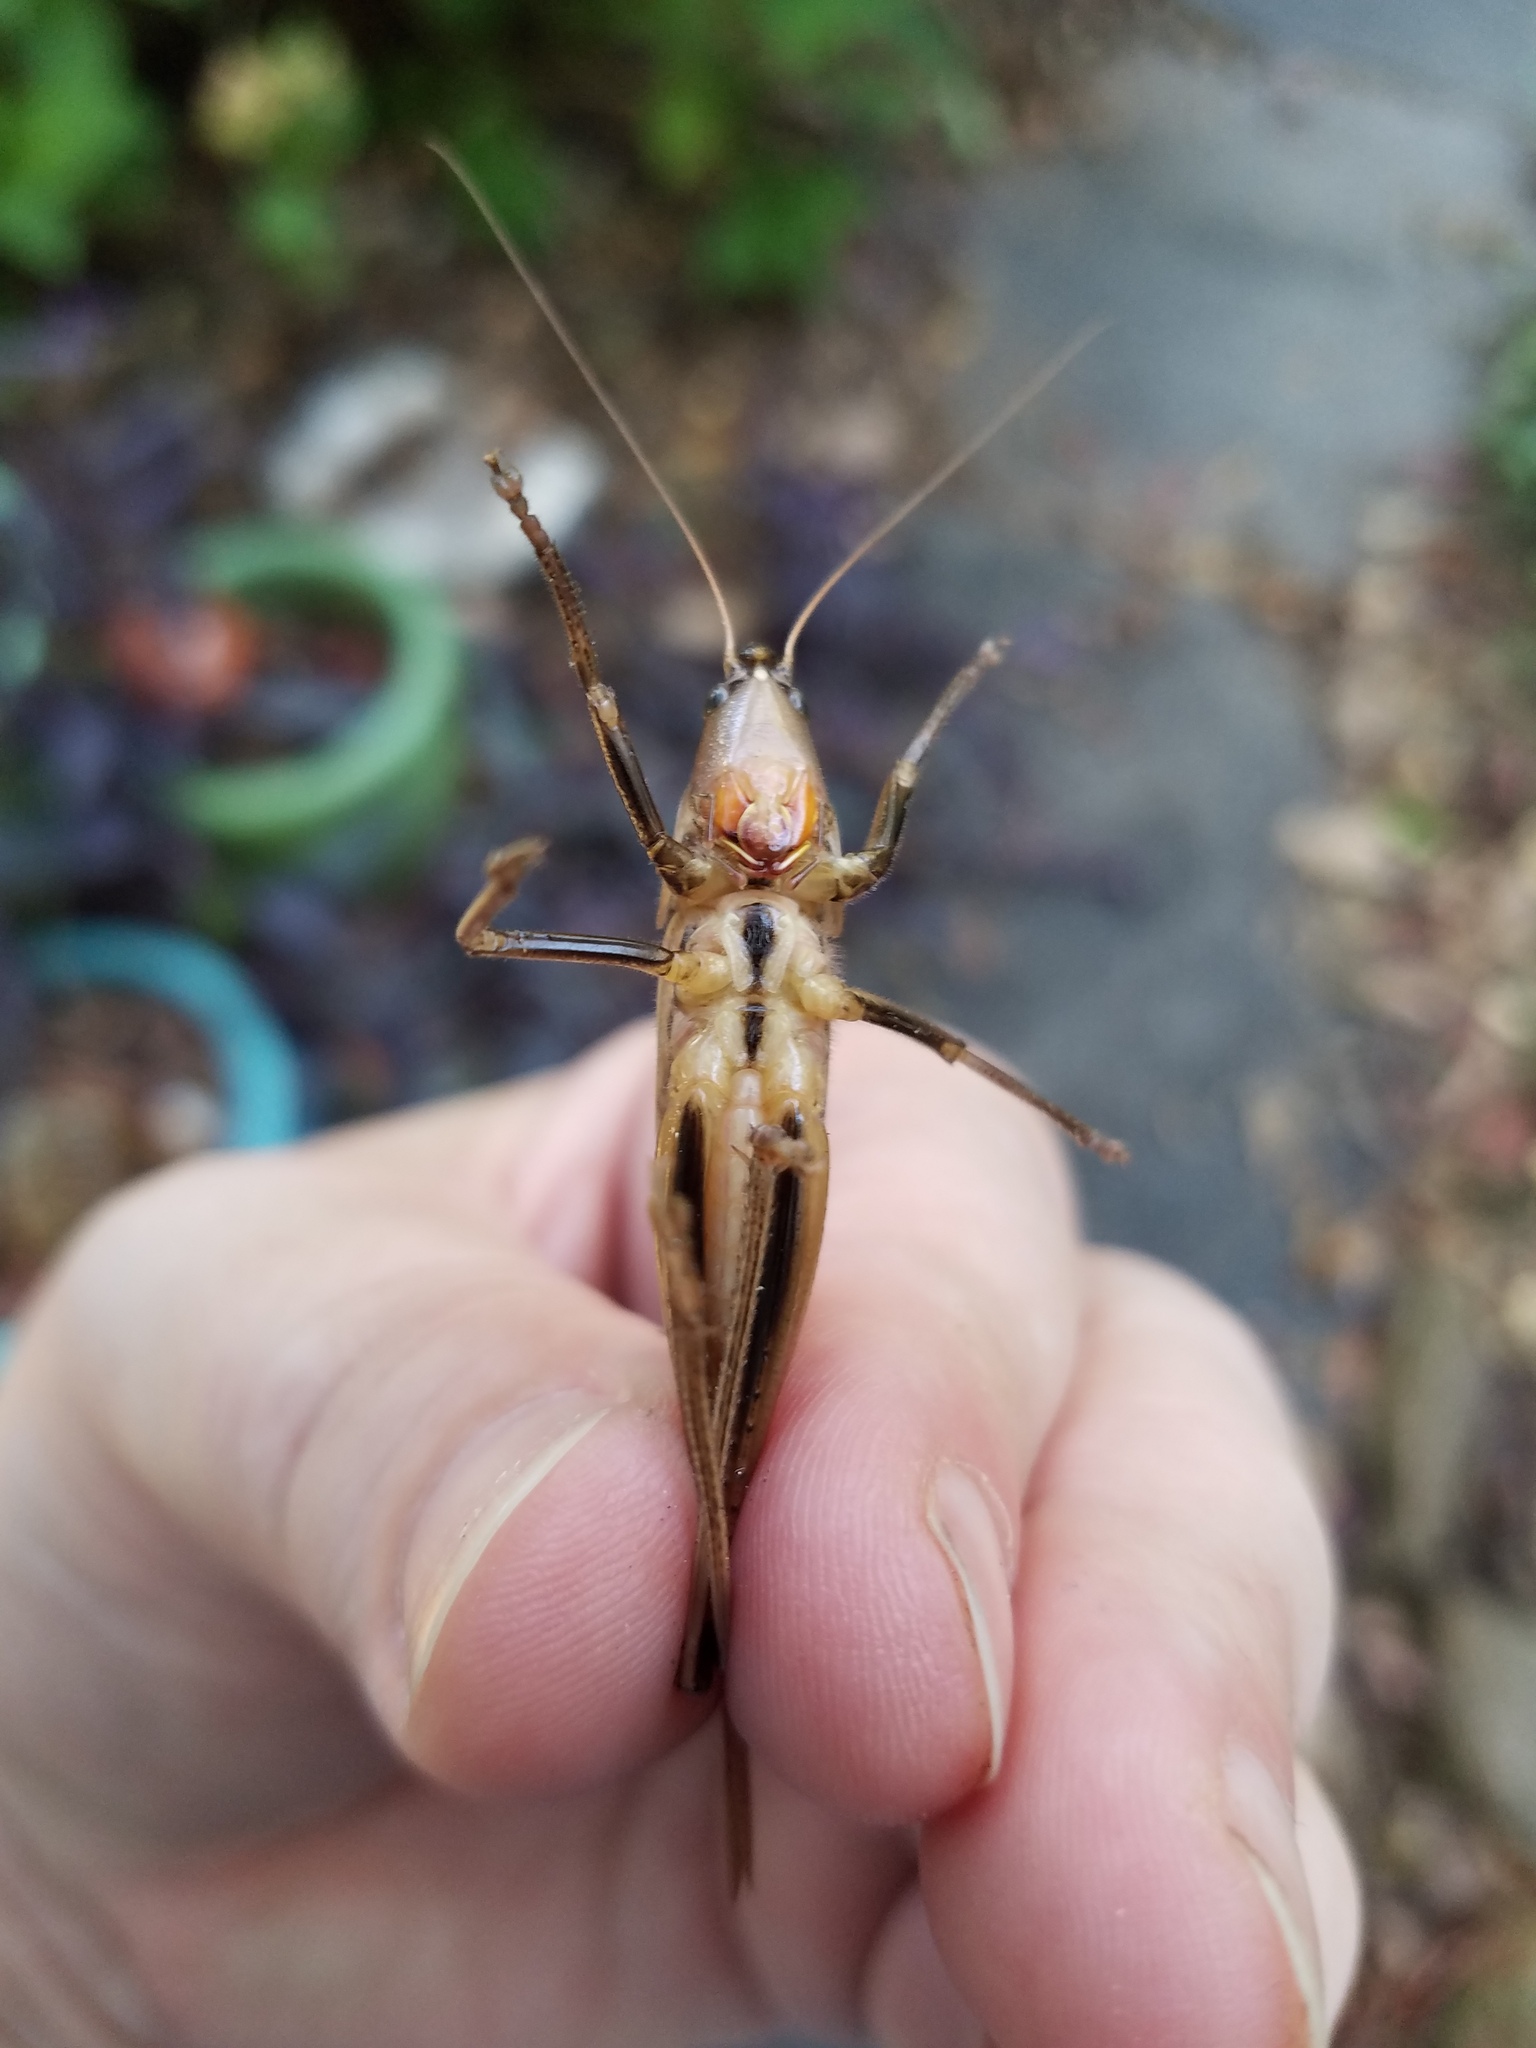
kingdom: Animalia
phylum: Arthropoda
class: Insecta
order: Orthoptera
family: Tettigoniidae
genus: Neoconocephalus
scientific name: Neoconocephalus triops
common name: Broad-tipped conehead
